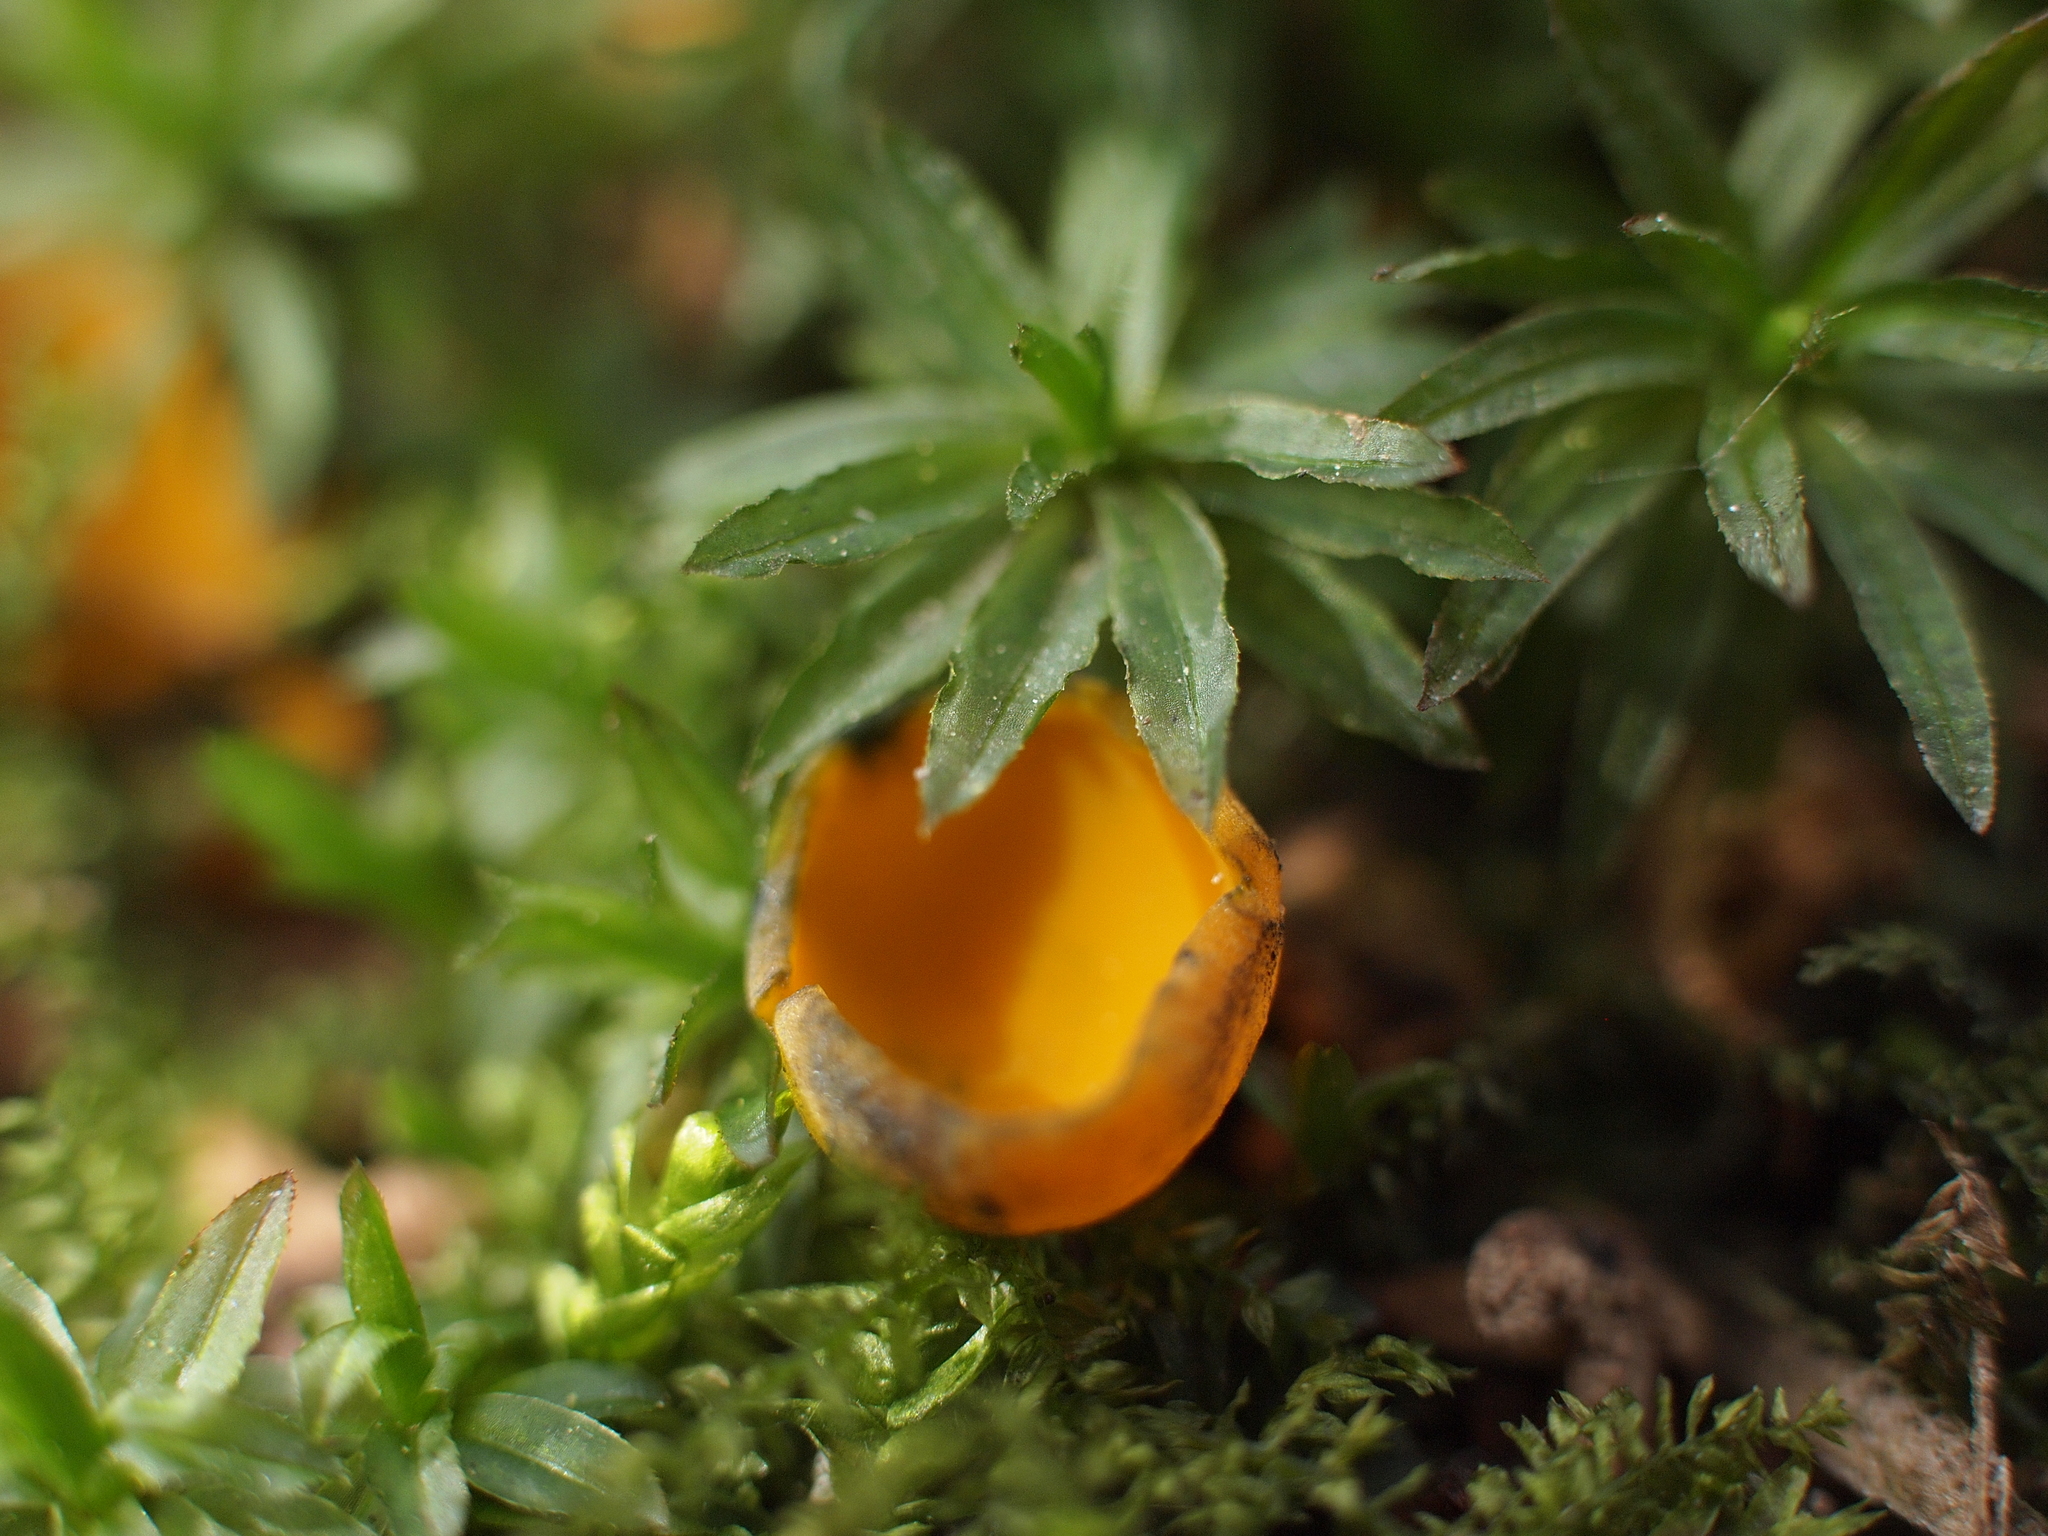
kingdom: Fungi
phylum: Ascomycota
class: Pezizomycetes
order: Pezizales
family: Caloscyphaceae
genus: Caloscypha
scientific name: Caloscypha fulgens
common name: Golden cup
